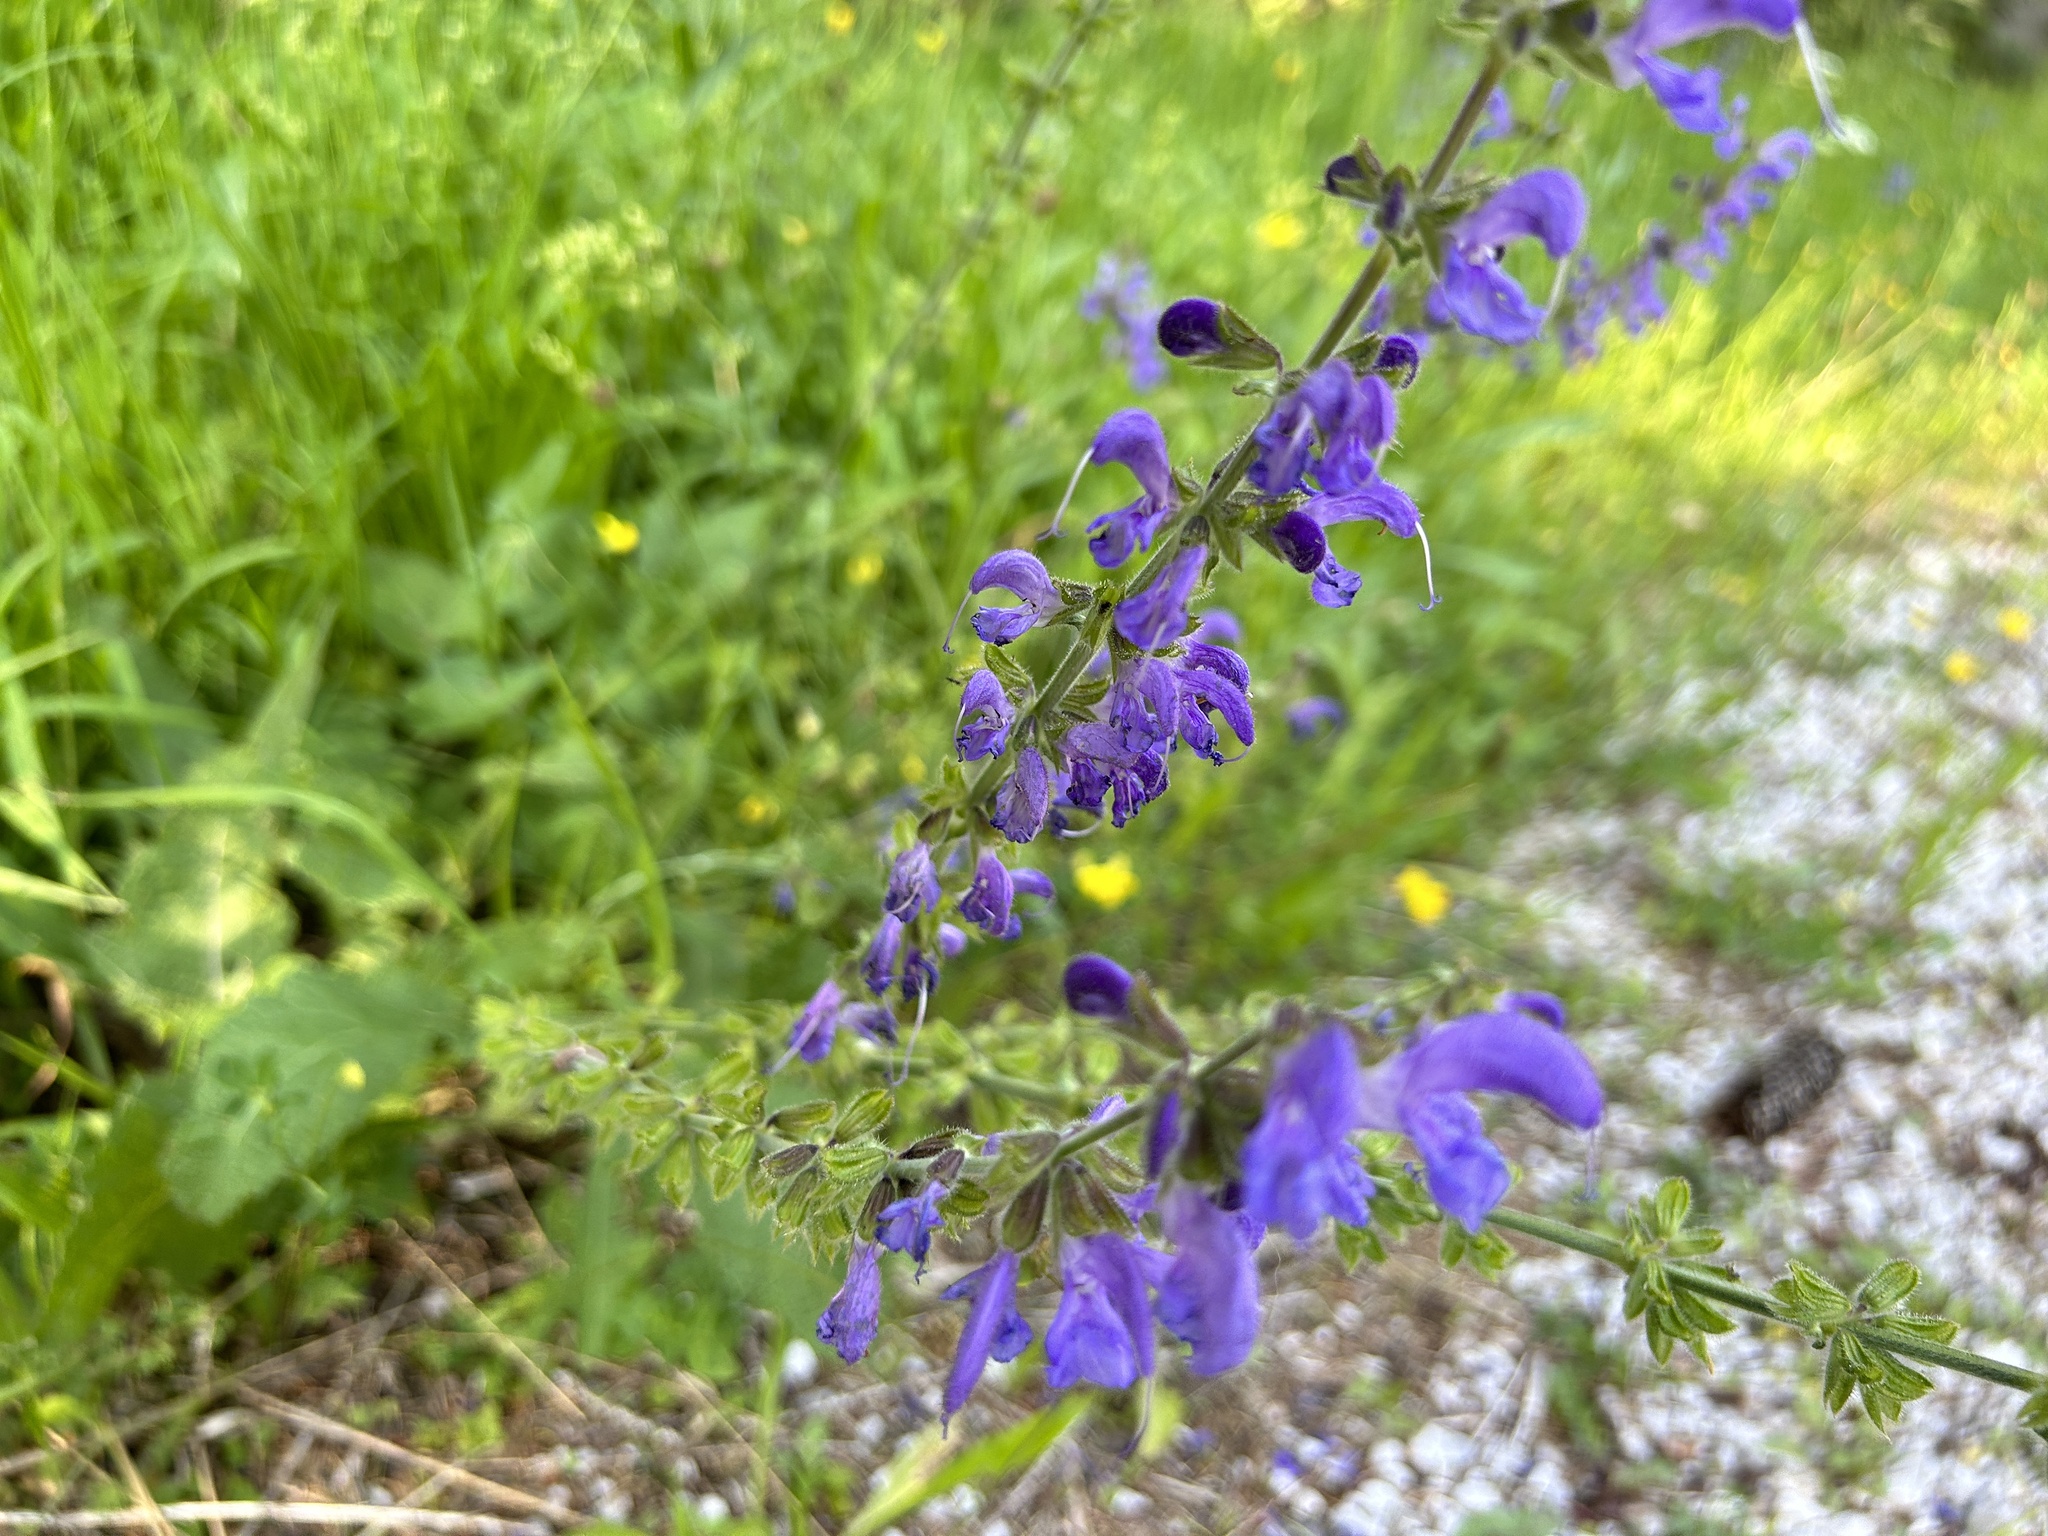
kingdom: Plantae
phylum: Tracheophyta
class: Magnoliopsida
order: Lamiales
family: Lamiaceae
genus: Salvia
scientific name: Salvia pratensis
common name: Meadow sage
